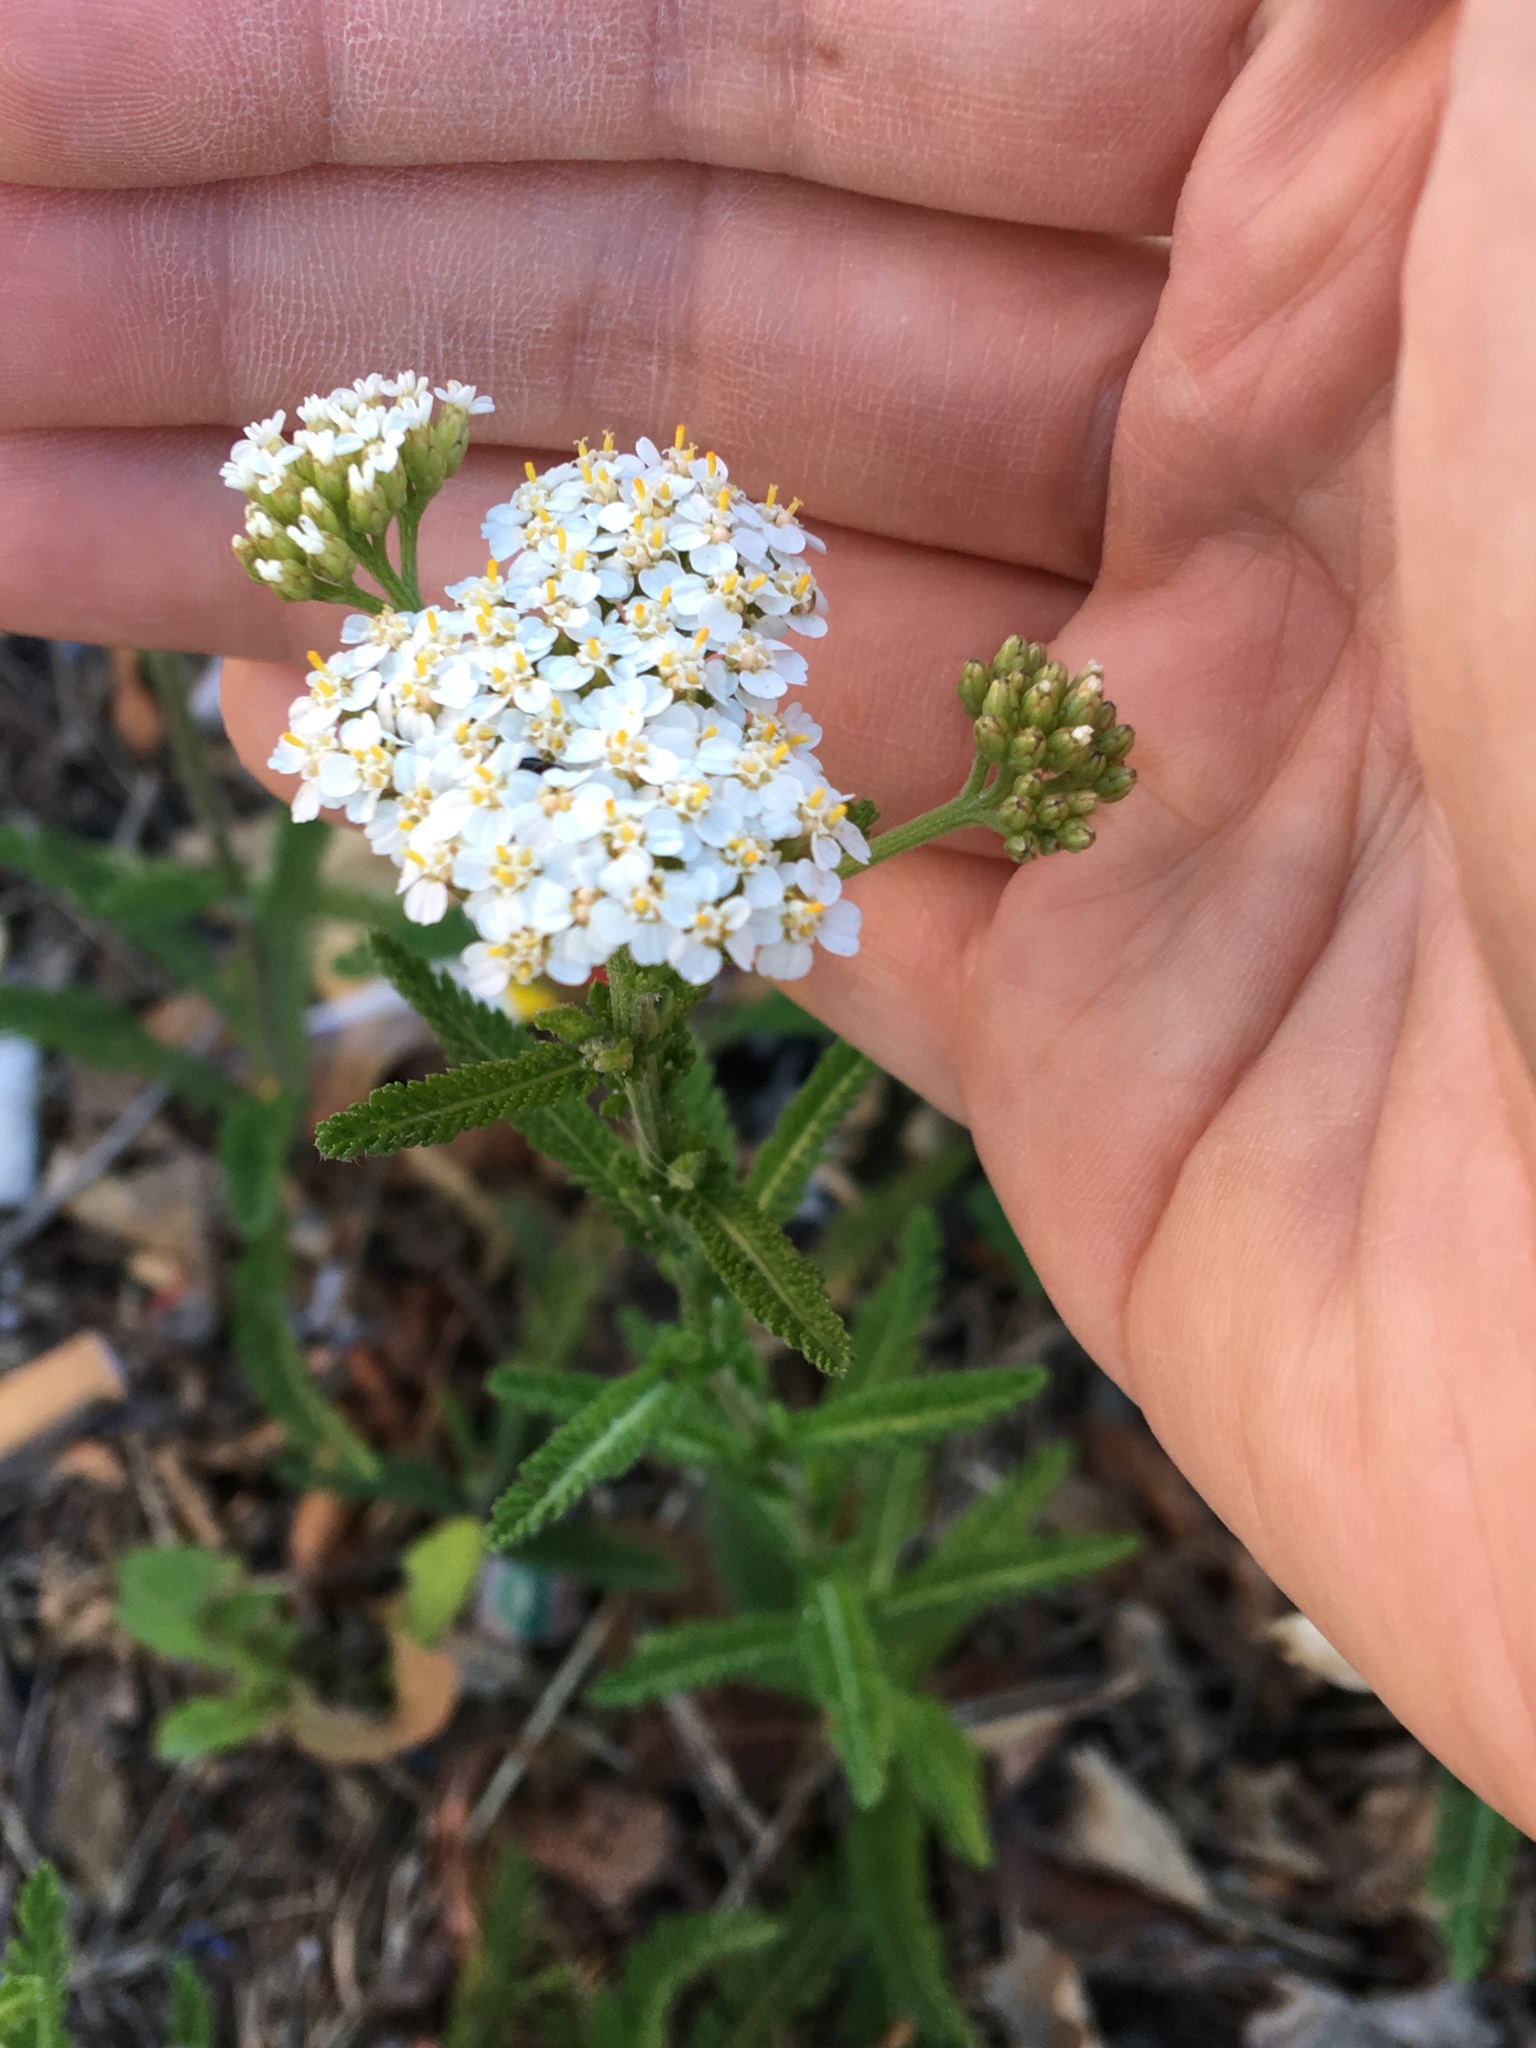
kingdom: Plantae
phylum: Tracheophyta
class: Magnoliopsida
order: Asterales
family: Asteraceae
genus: Achillea
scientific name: Achillea millefolium
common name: Yarrow
